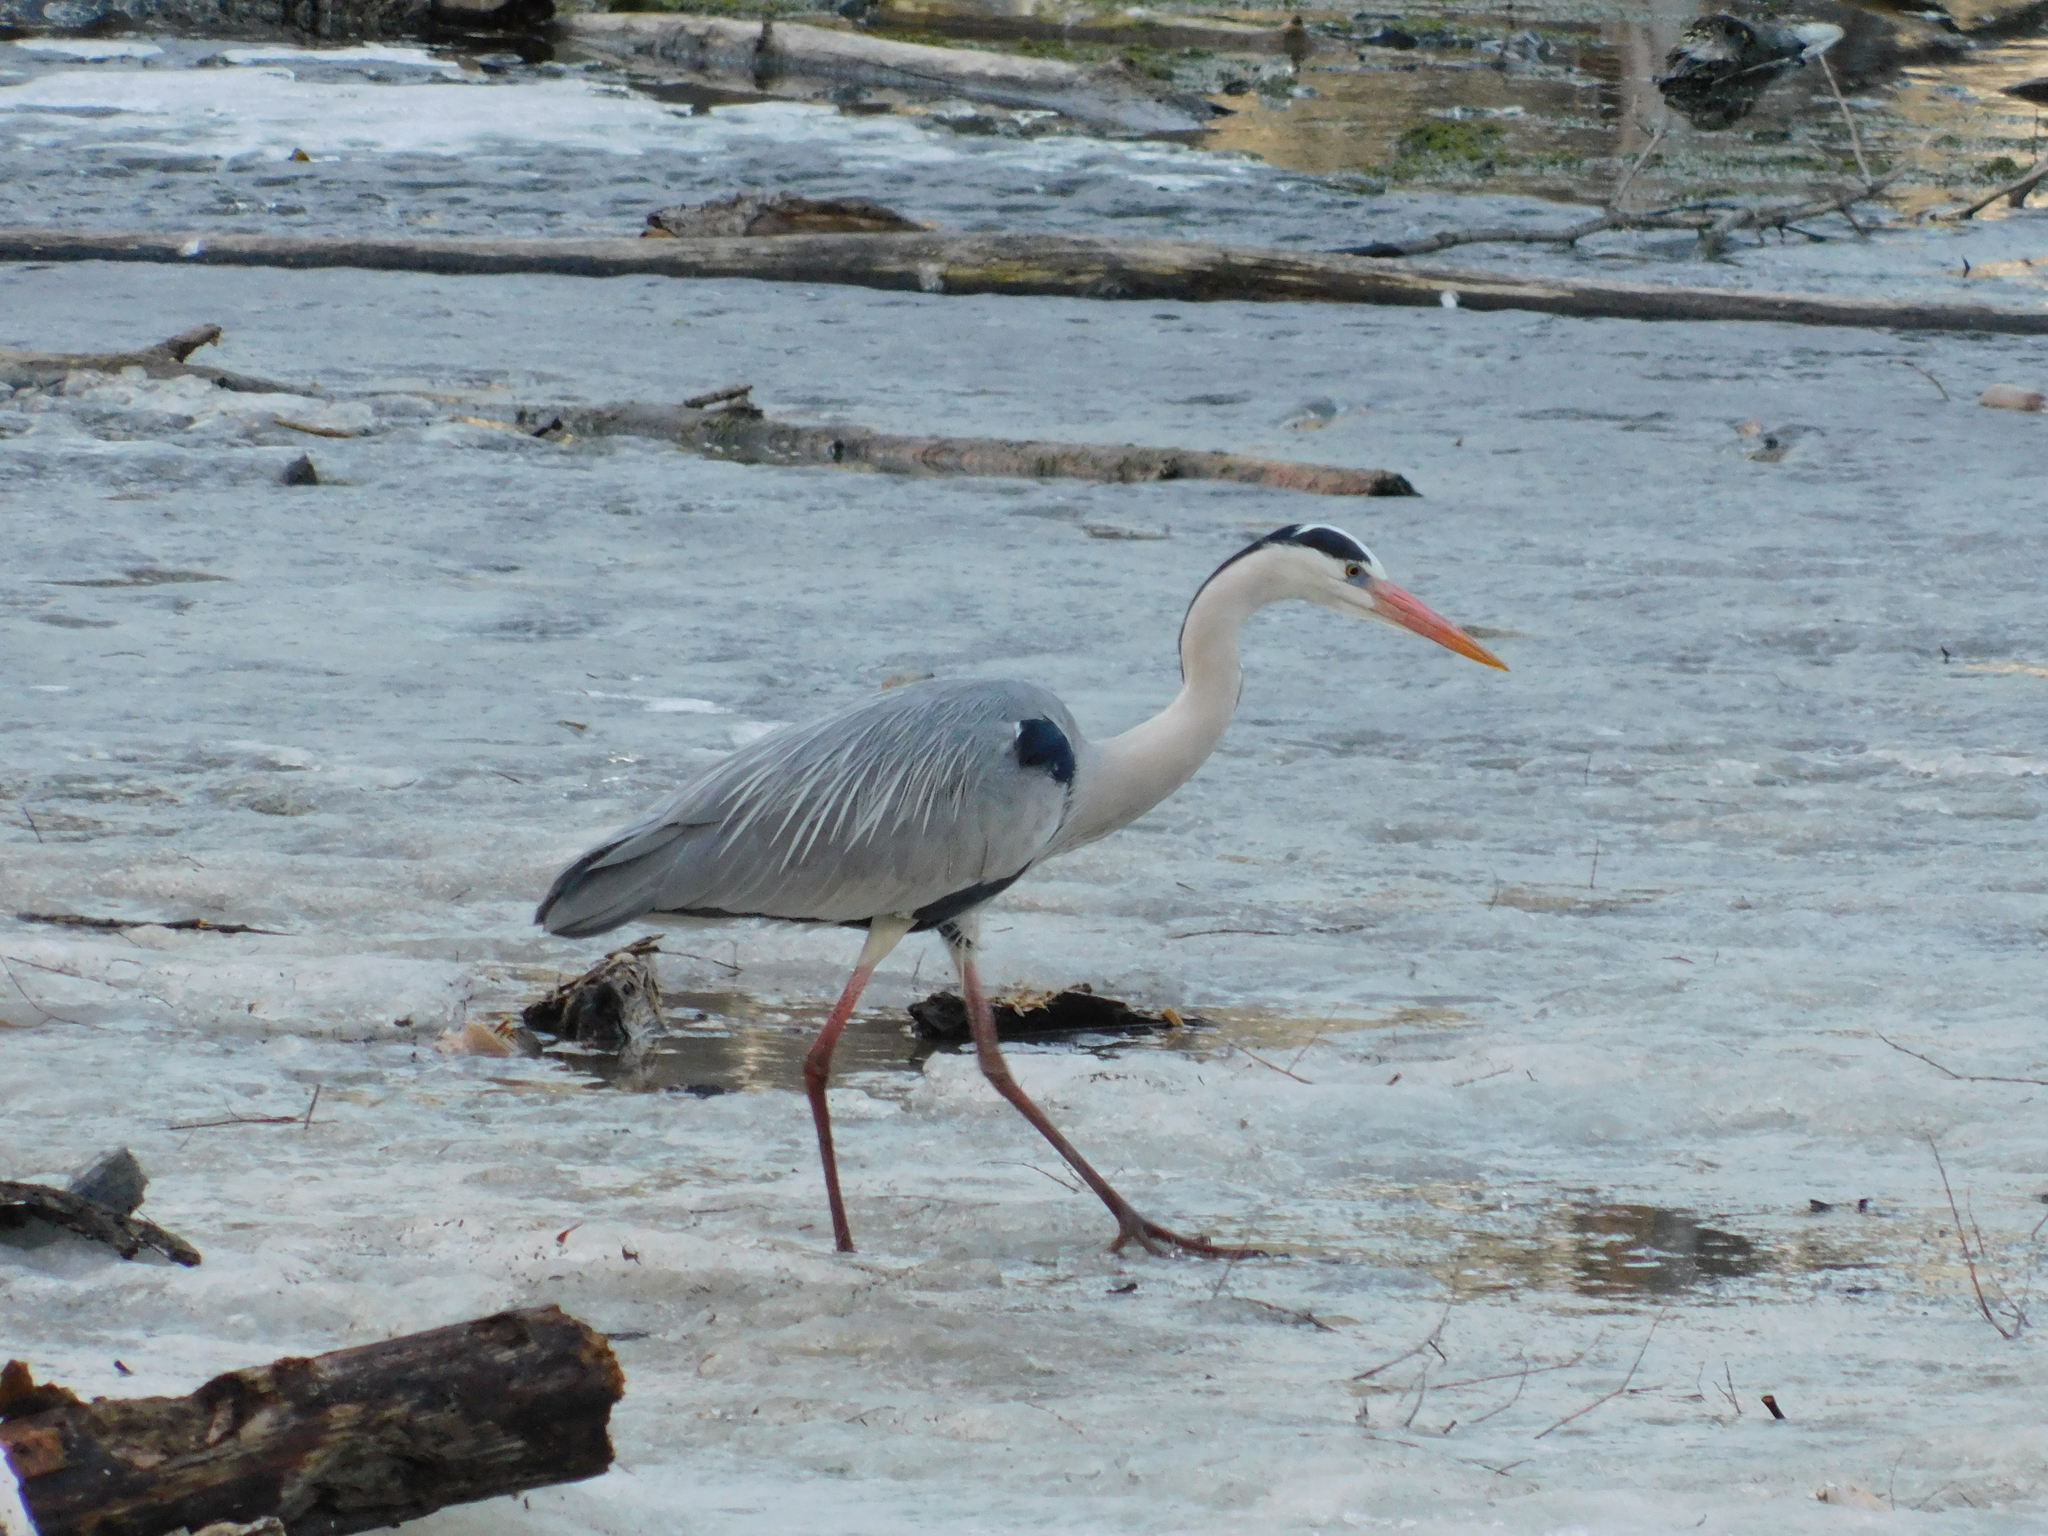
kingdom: Animalia
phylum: Chordata
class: Aves
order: Pelecaniformes
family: Ardeidae
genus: Ardea
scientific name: Ardea cinerea
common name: Grey heron
